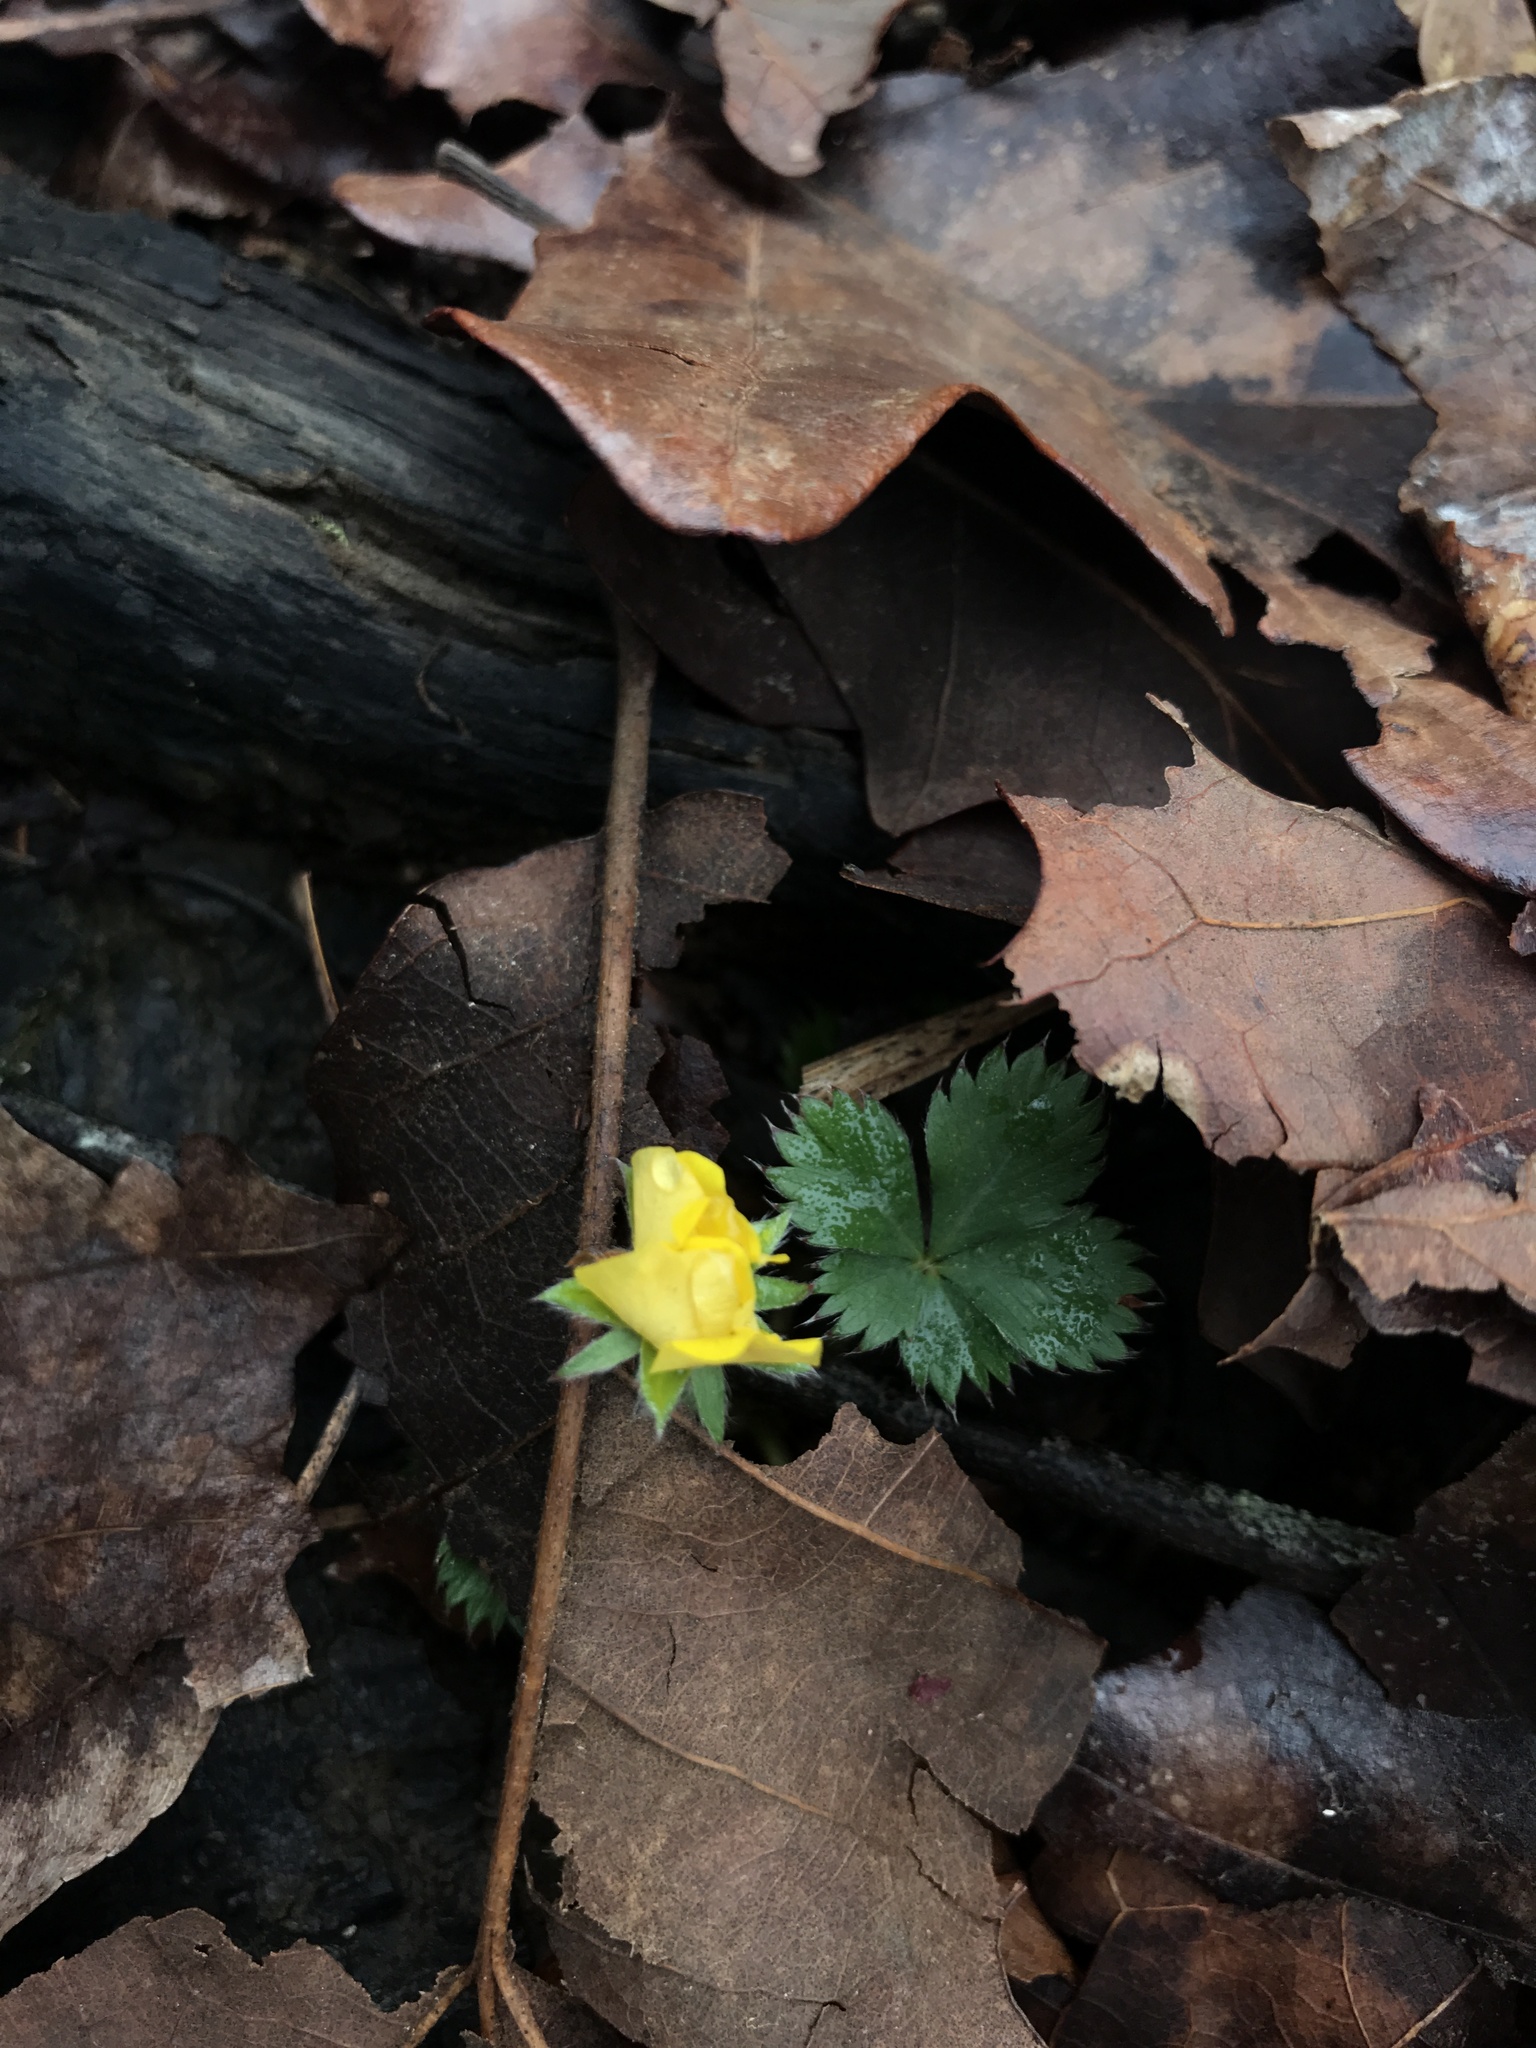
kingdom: Plantae
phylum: Tracheophyta
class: Magnoliopsida
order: Rosales
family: Rosaceae
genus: Potentilla
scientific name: Potentilla canadensis
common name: Canada cinquefoil
